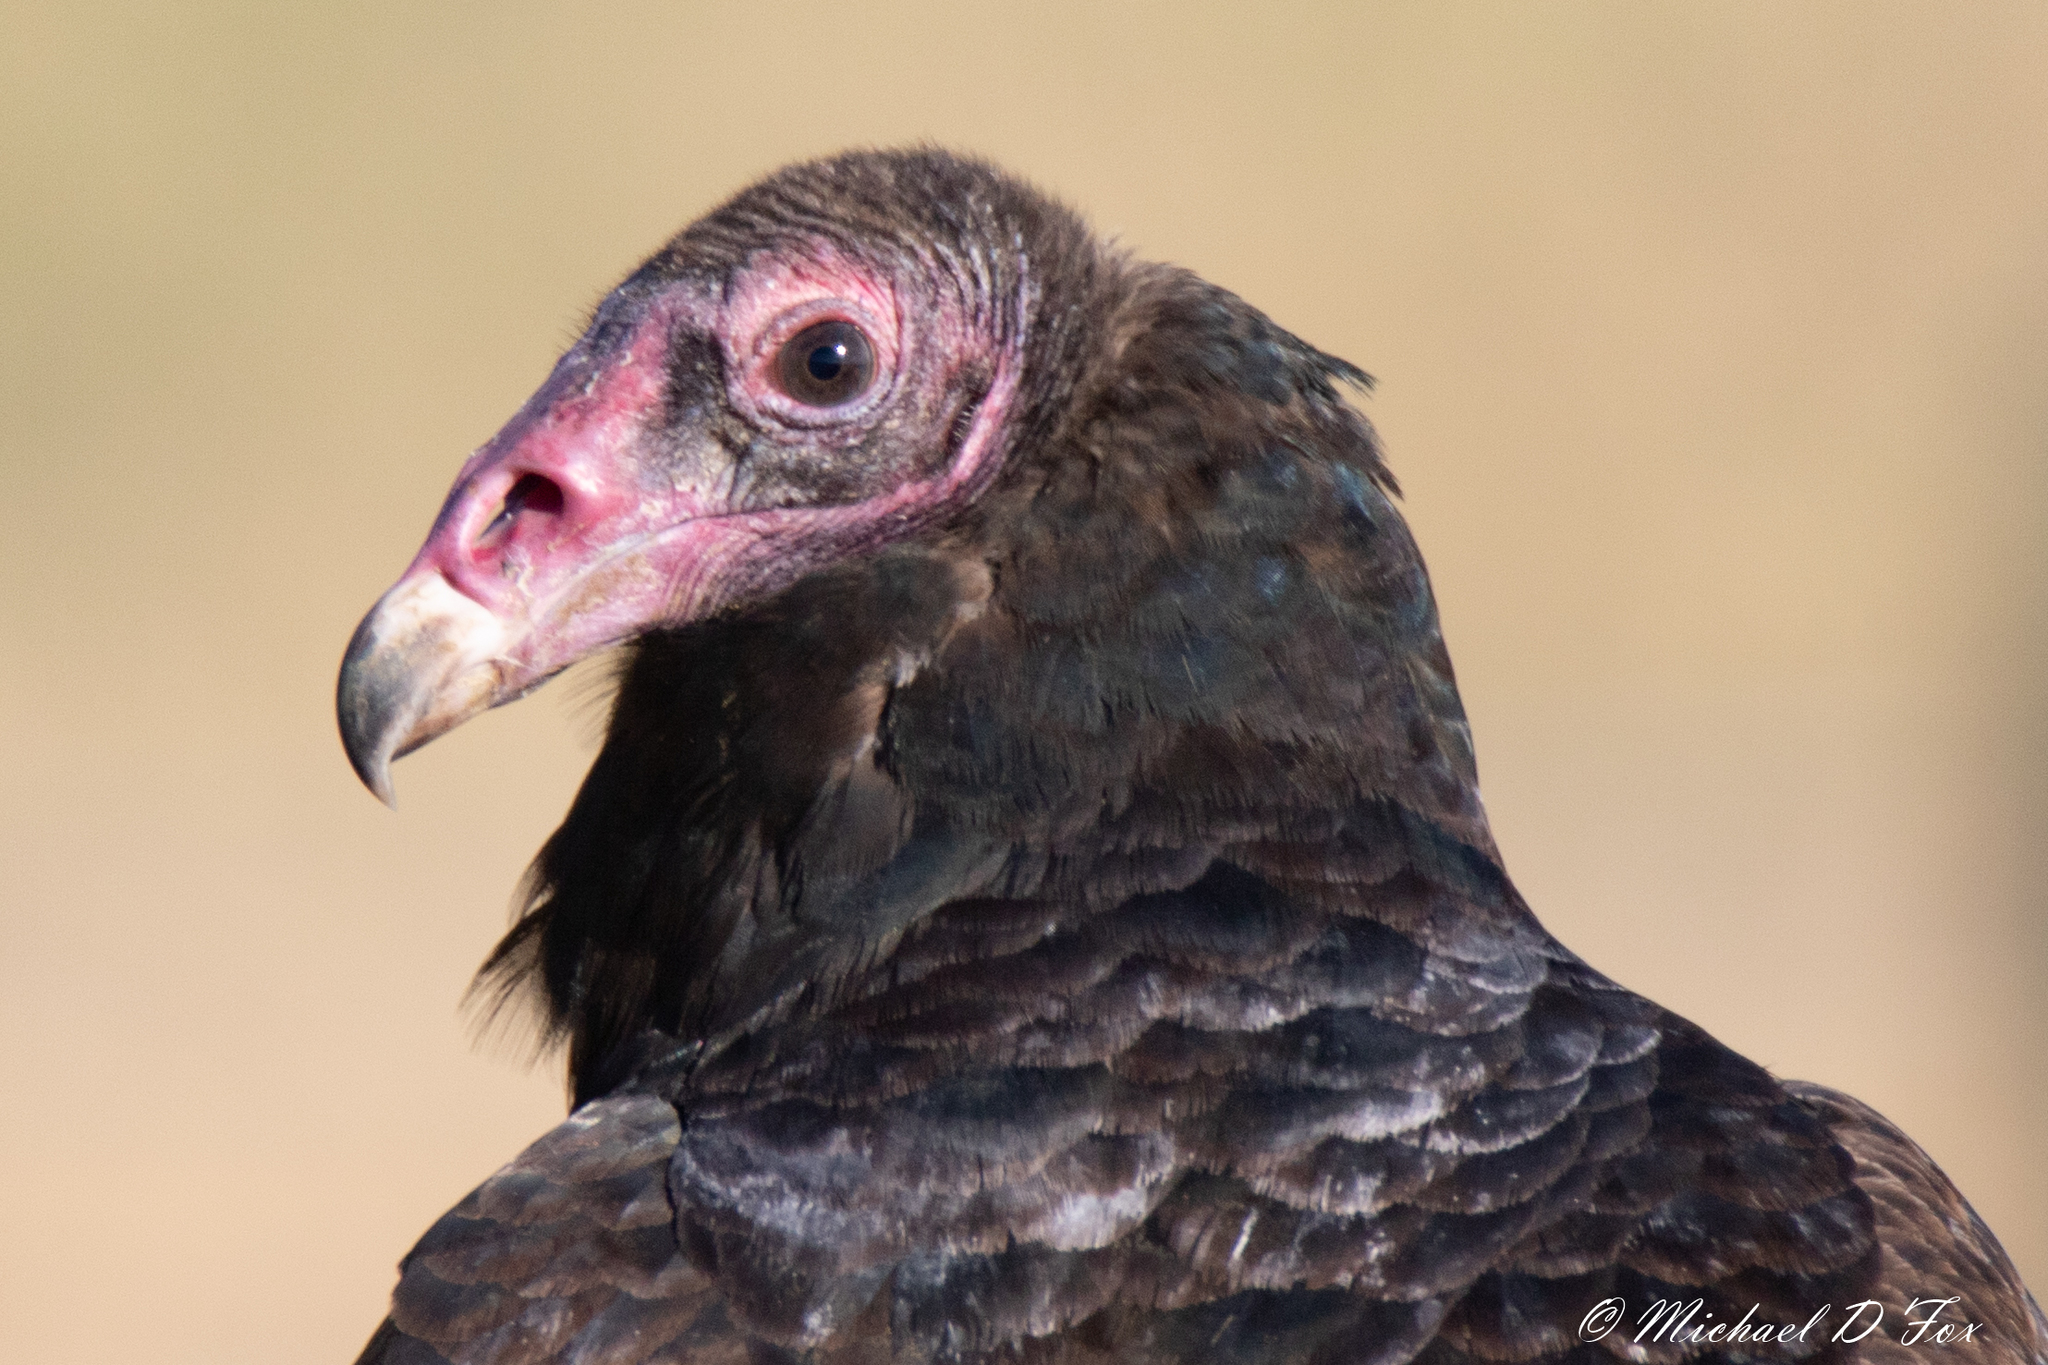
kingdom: Animalia
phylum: Chordata
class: Aves
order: Accipitriformes
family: Cathartidae
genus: Cathartes
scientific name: Cathartes aura
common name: Turkey vulture
